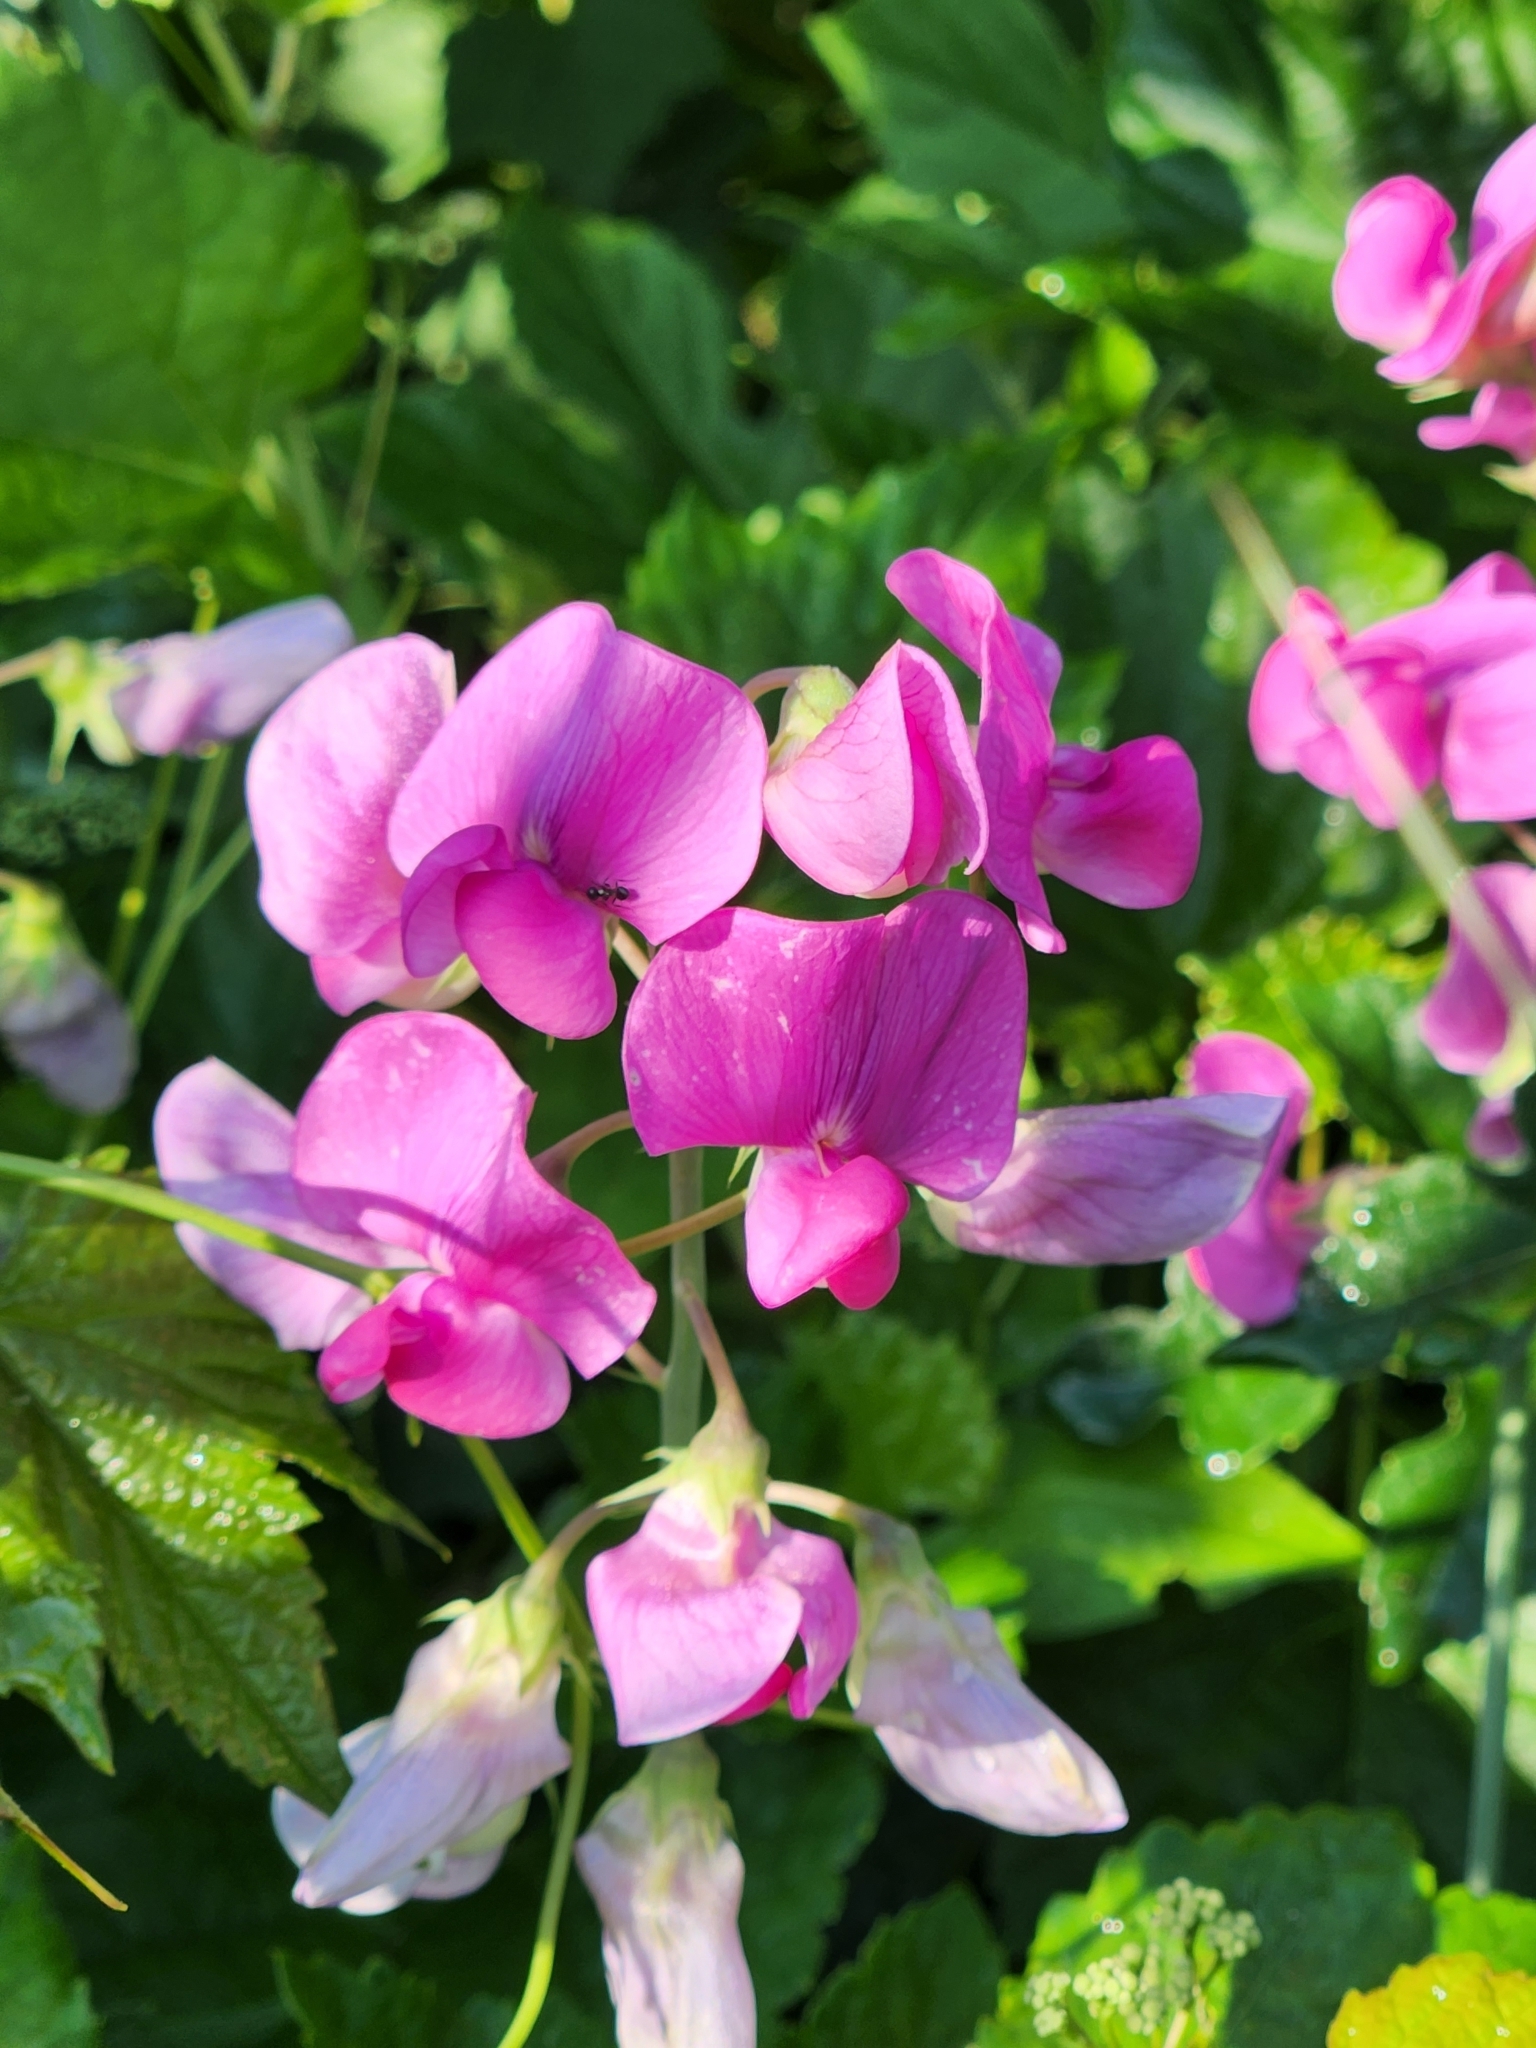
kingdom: Plantae
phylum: Tracheophyta
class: Magnoliopsida
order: Fabales
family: Fabaceae
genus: Lathyrus
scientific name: Lathyrus latifolius
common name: Perennial pea
